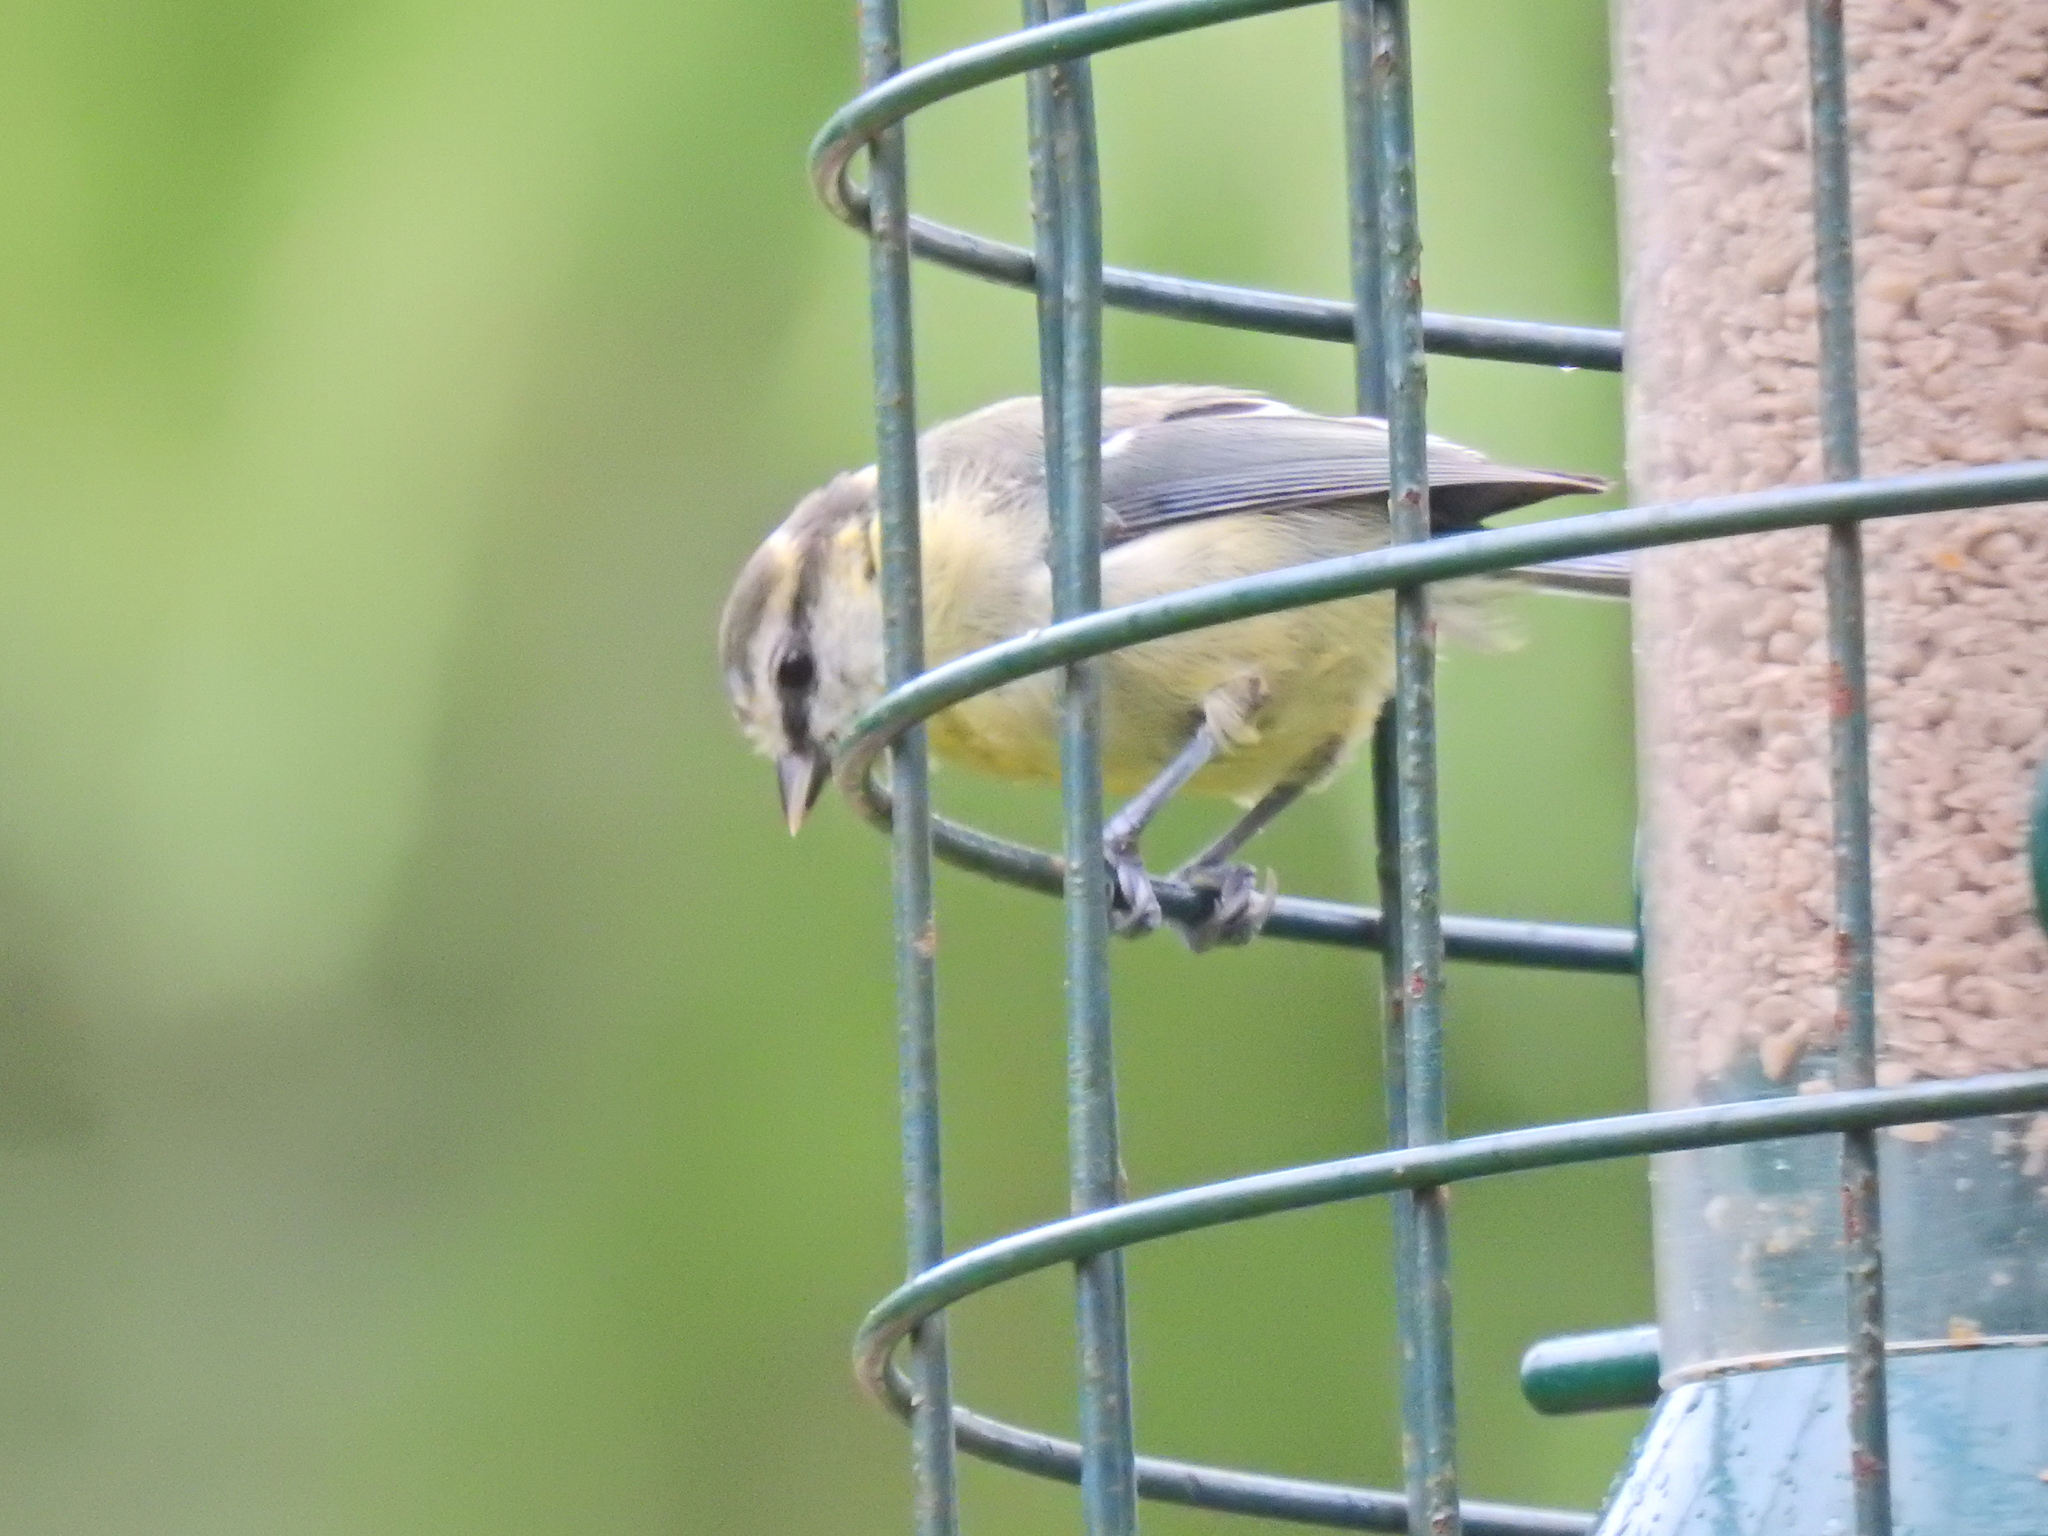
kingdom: Animalia
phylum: Chordata
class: Aves
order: Passeriformes
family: Paridae
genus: Cyanistes
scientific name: Cyanistes caeruleus
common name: Eurasian blue tit
